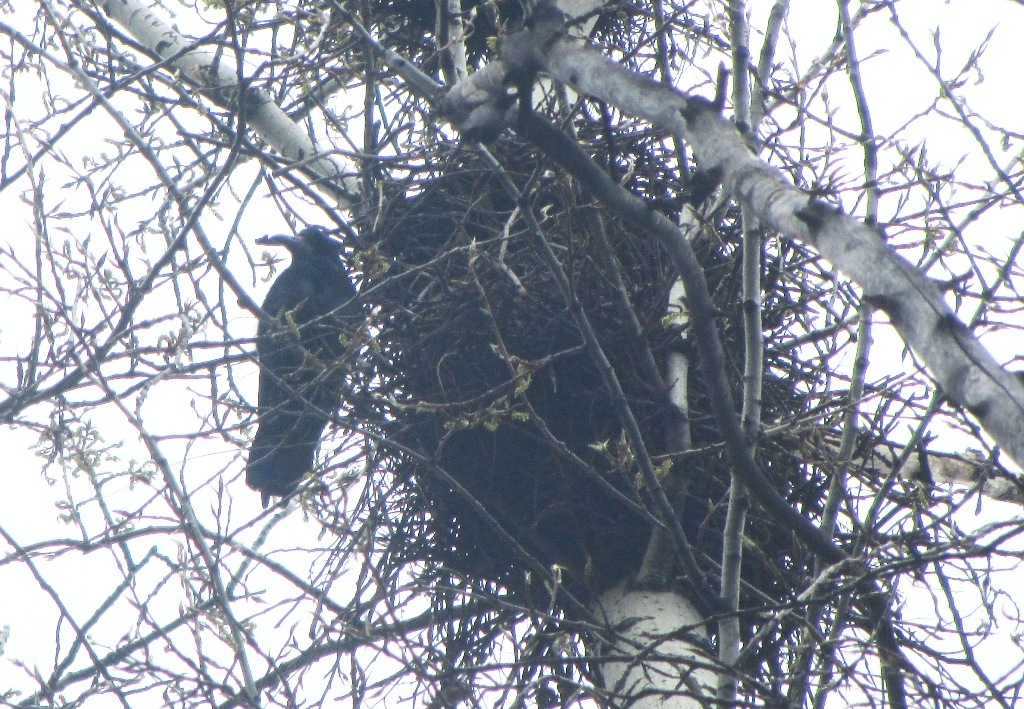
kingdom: Animalia
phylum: Chordata
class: Aves
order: Passeriformes
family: Corvidae
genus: Corvus
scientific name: Corvus frugilegus
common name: Rook
